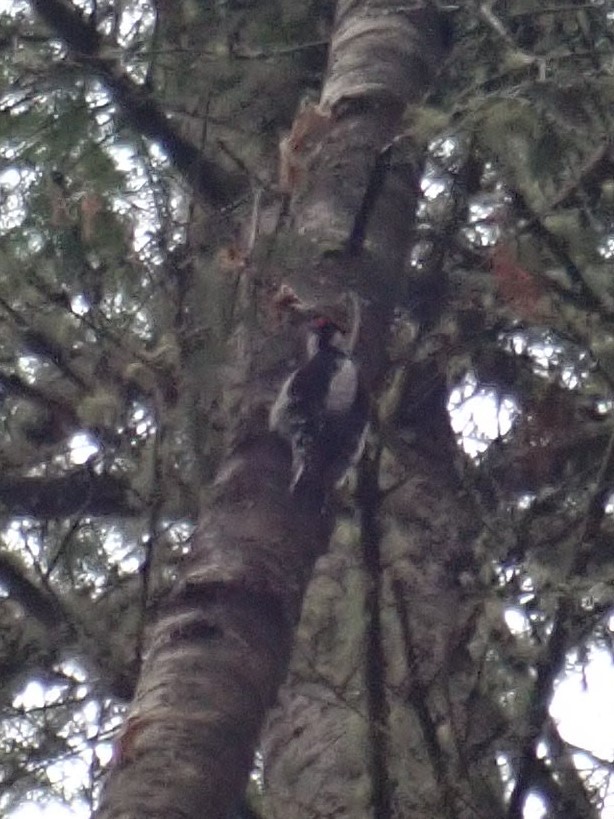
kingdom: Animalia
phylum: Chordata
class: Aves
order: Piciformes
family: Picidae
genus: Dryobates
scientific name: Dryobates pubescens
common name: Downy woodpecker
